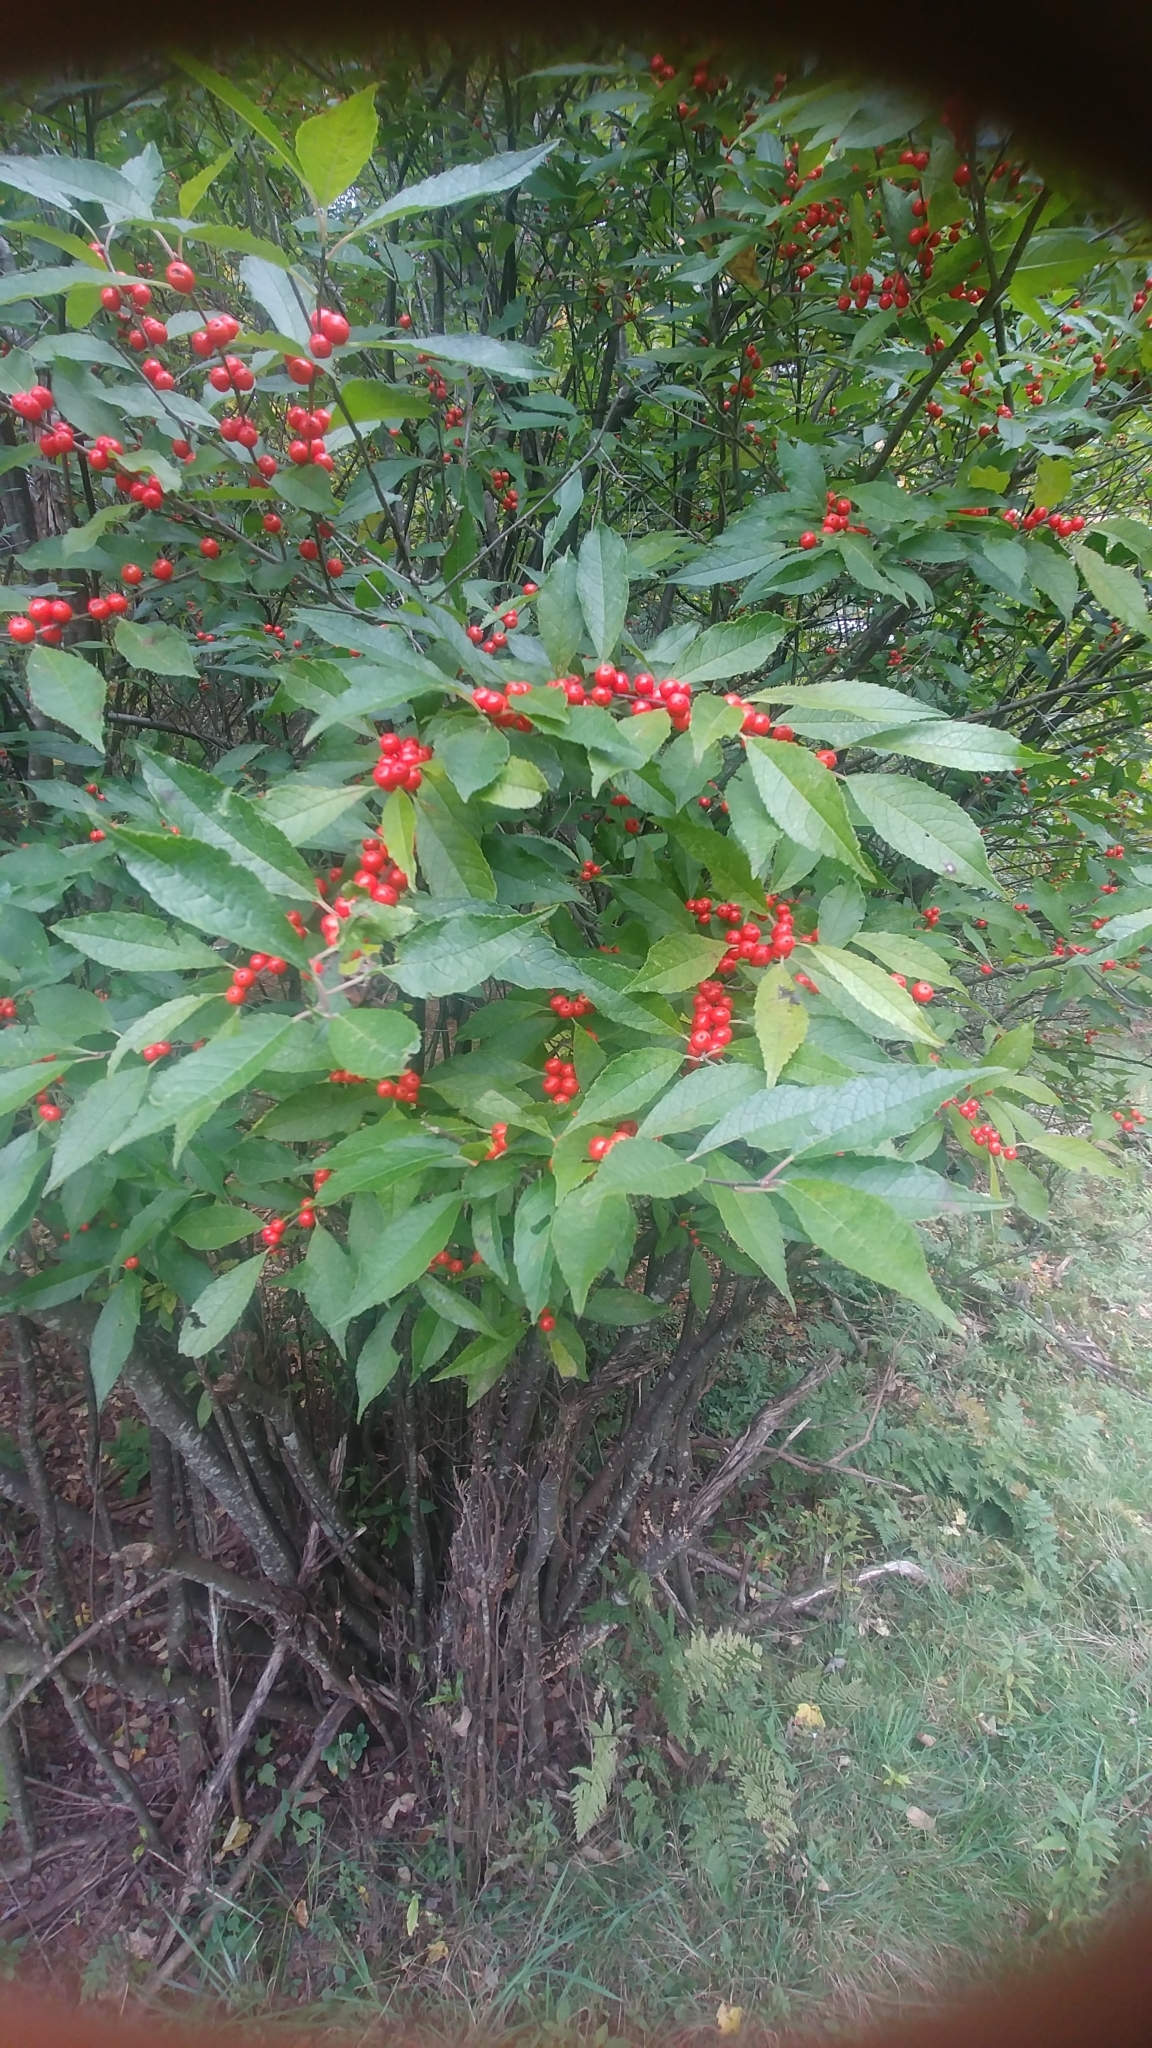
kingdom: Plantae
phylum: Tracheophyta
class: Magnoliopsida
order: Aquifoliales
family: Aquifoliaceae
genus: Ilex
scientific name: Ilex verticillata
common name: Virginia winterberry
